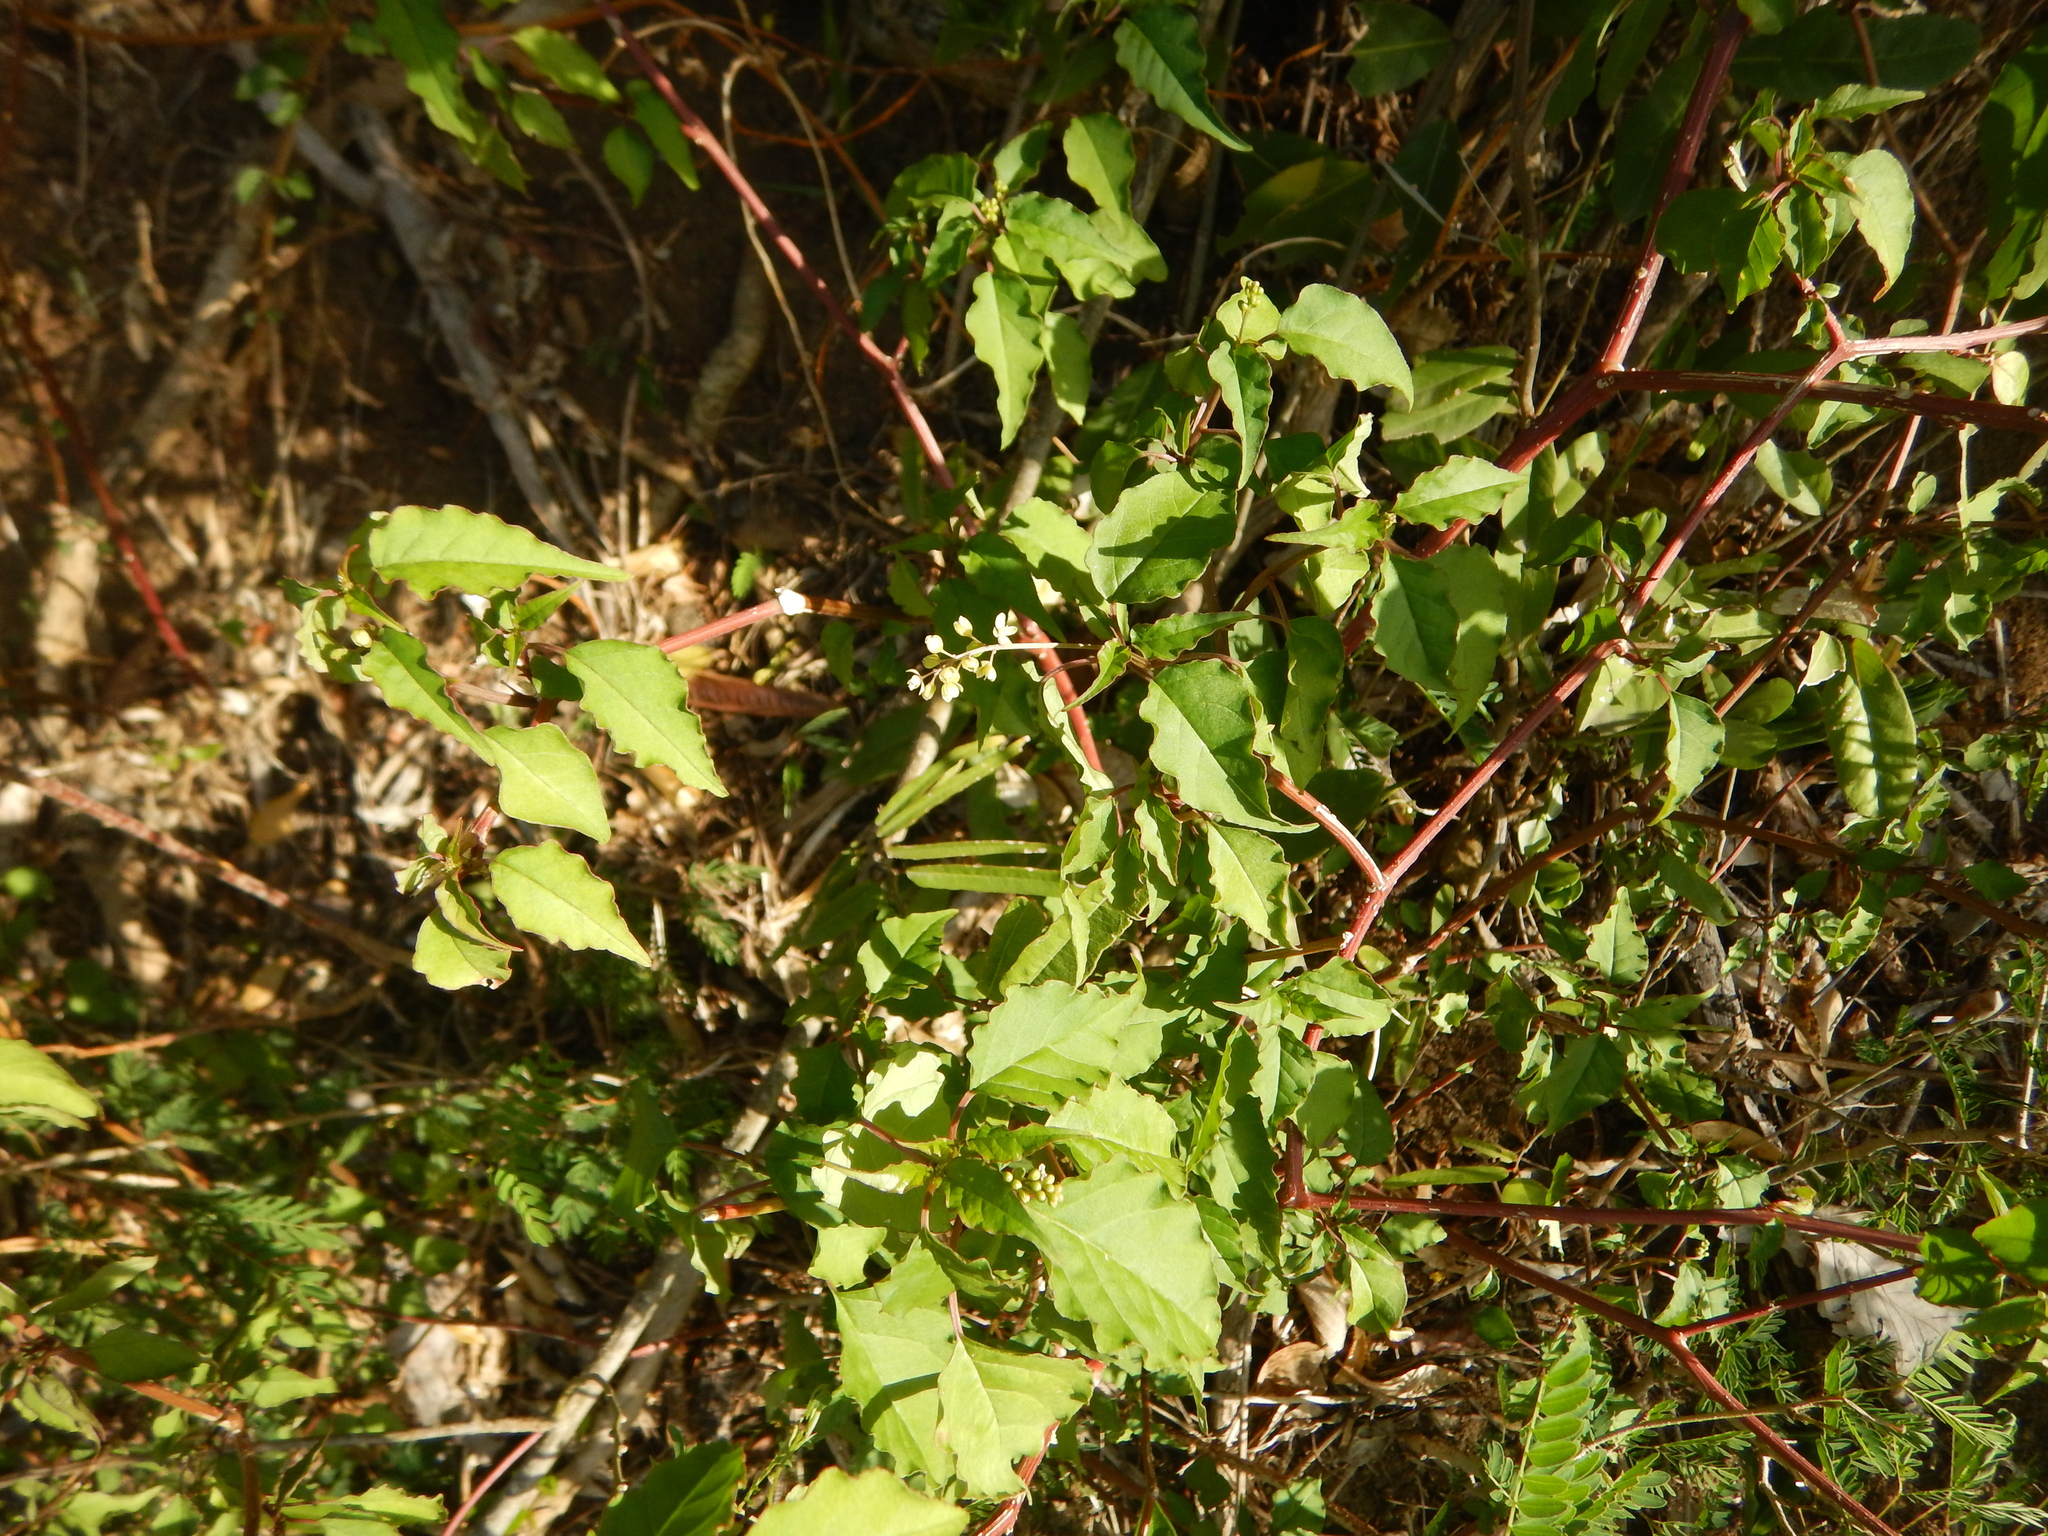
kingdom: Plantae
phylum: Tracheophyta
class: Magnoliopsida
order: Caryophyllales
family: Phytolaccaceae
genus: Rivina
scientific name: Rivina humilis
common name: Rougeplant
